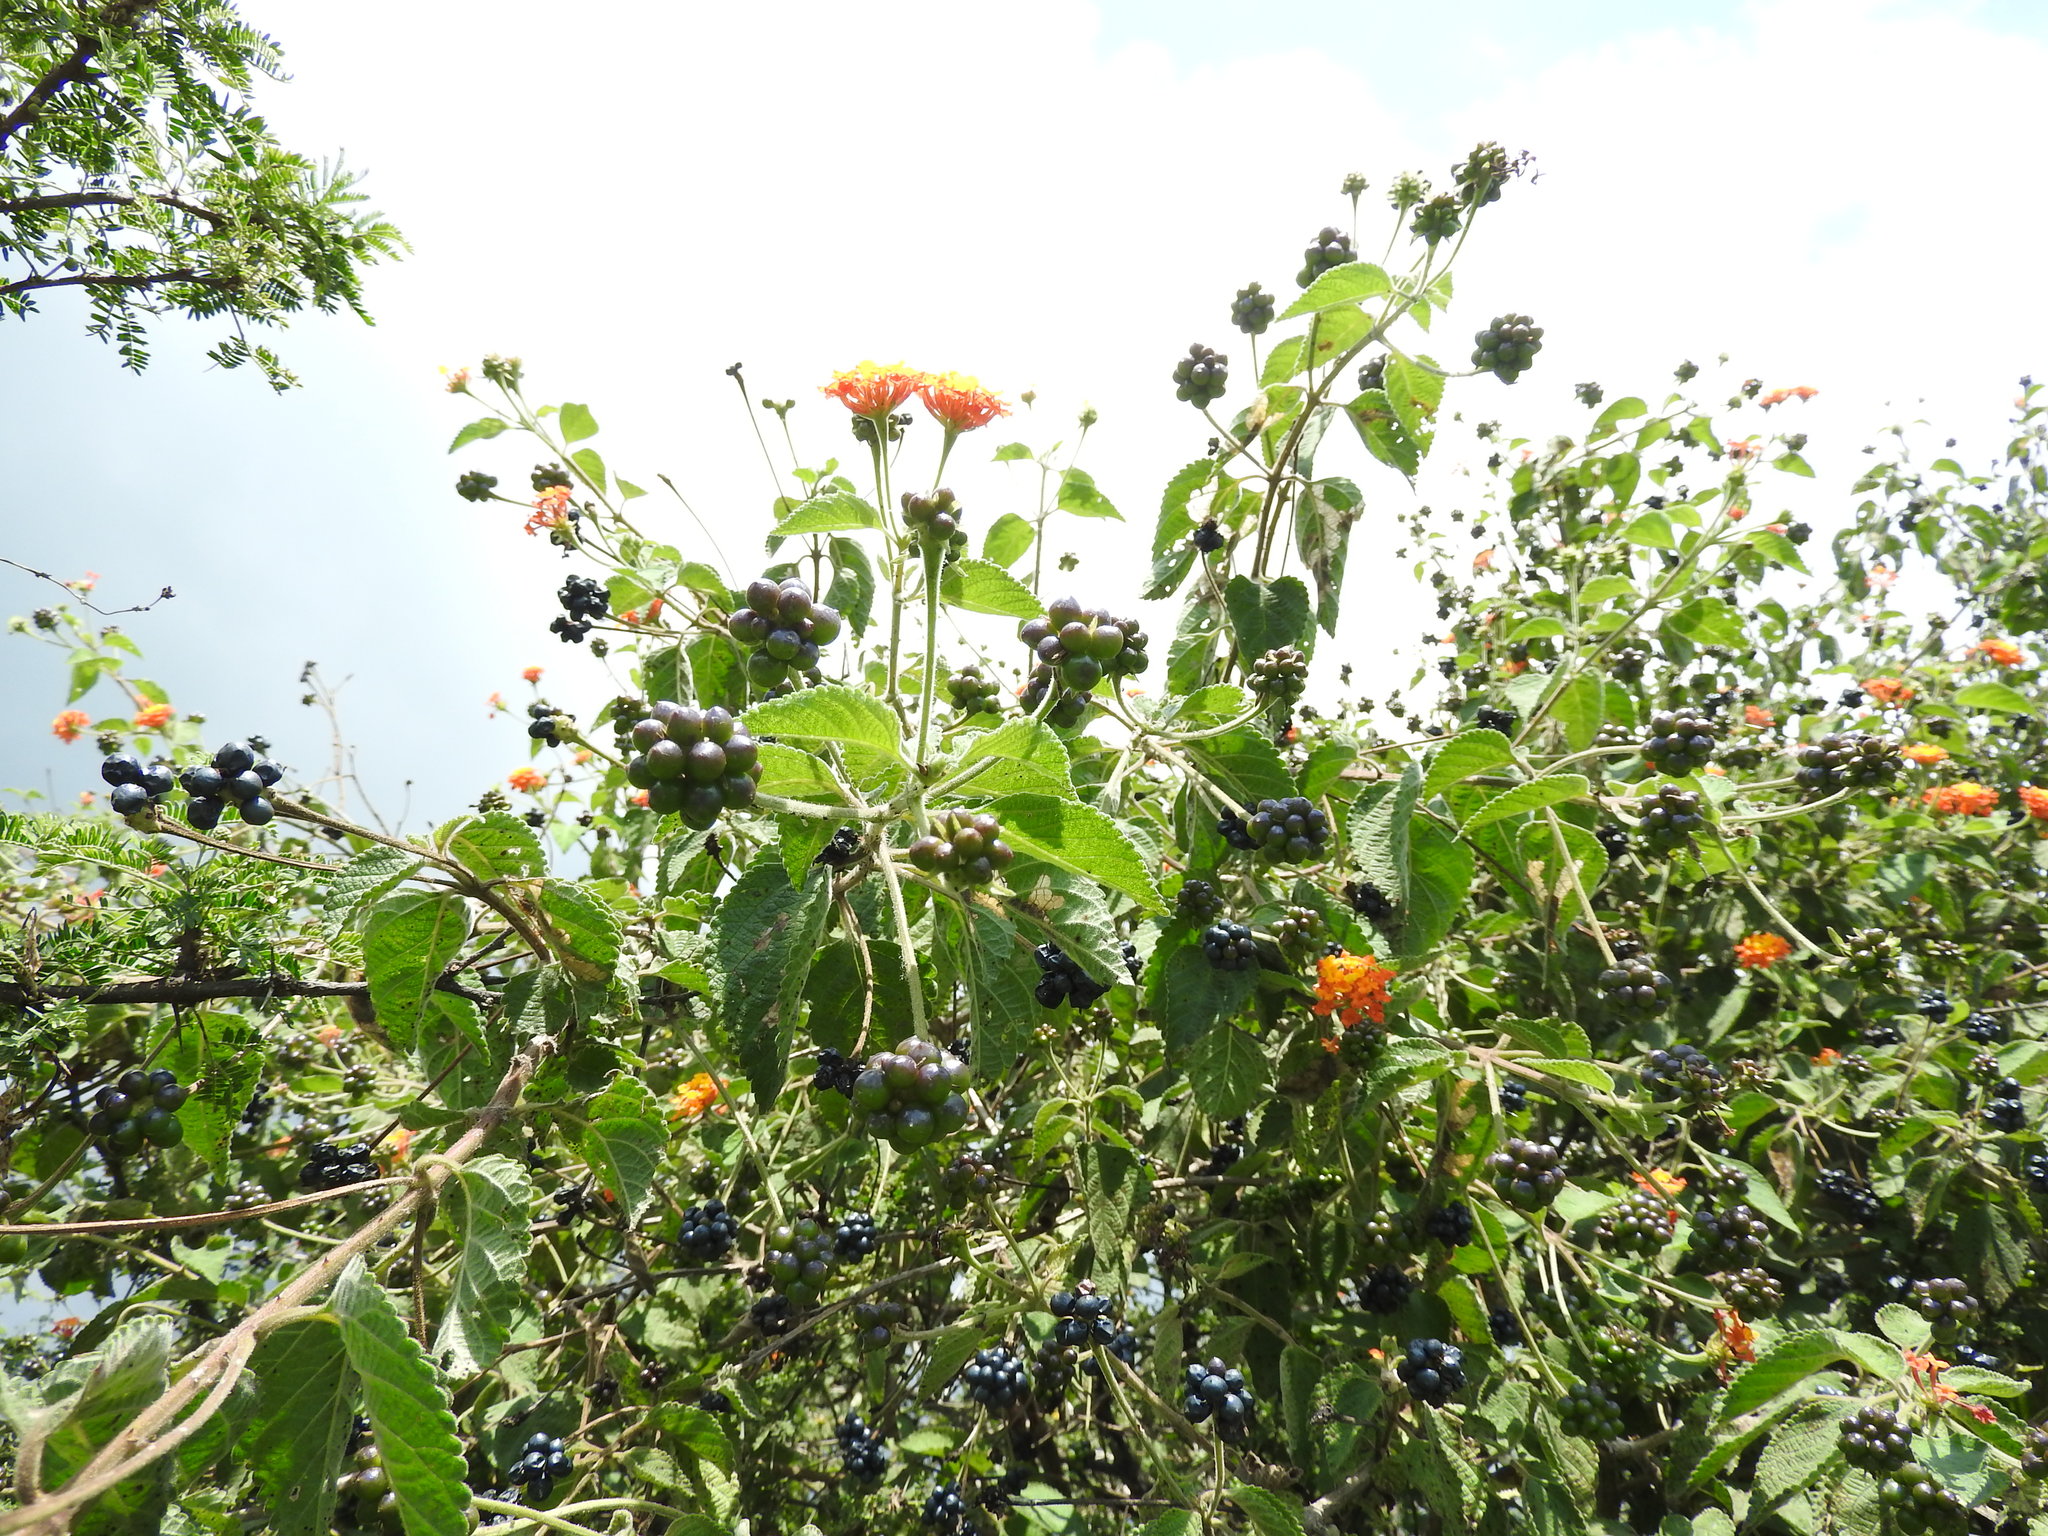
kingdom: Plantae
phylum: Tracheophyta
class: Magnoliopsida
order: Lamiales
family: Verbenaceae
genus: Lantana
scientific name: Lantana camara
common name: Lantana
